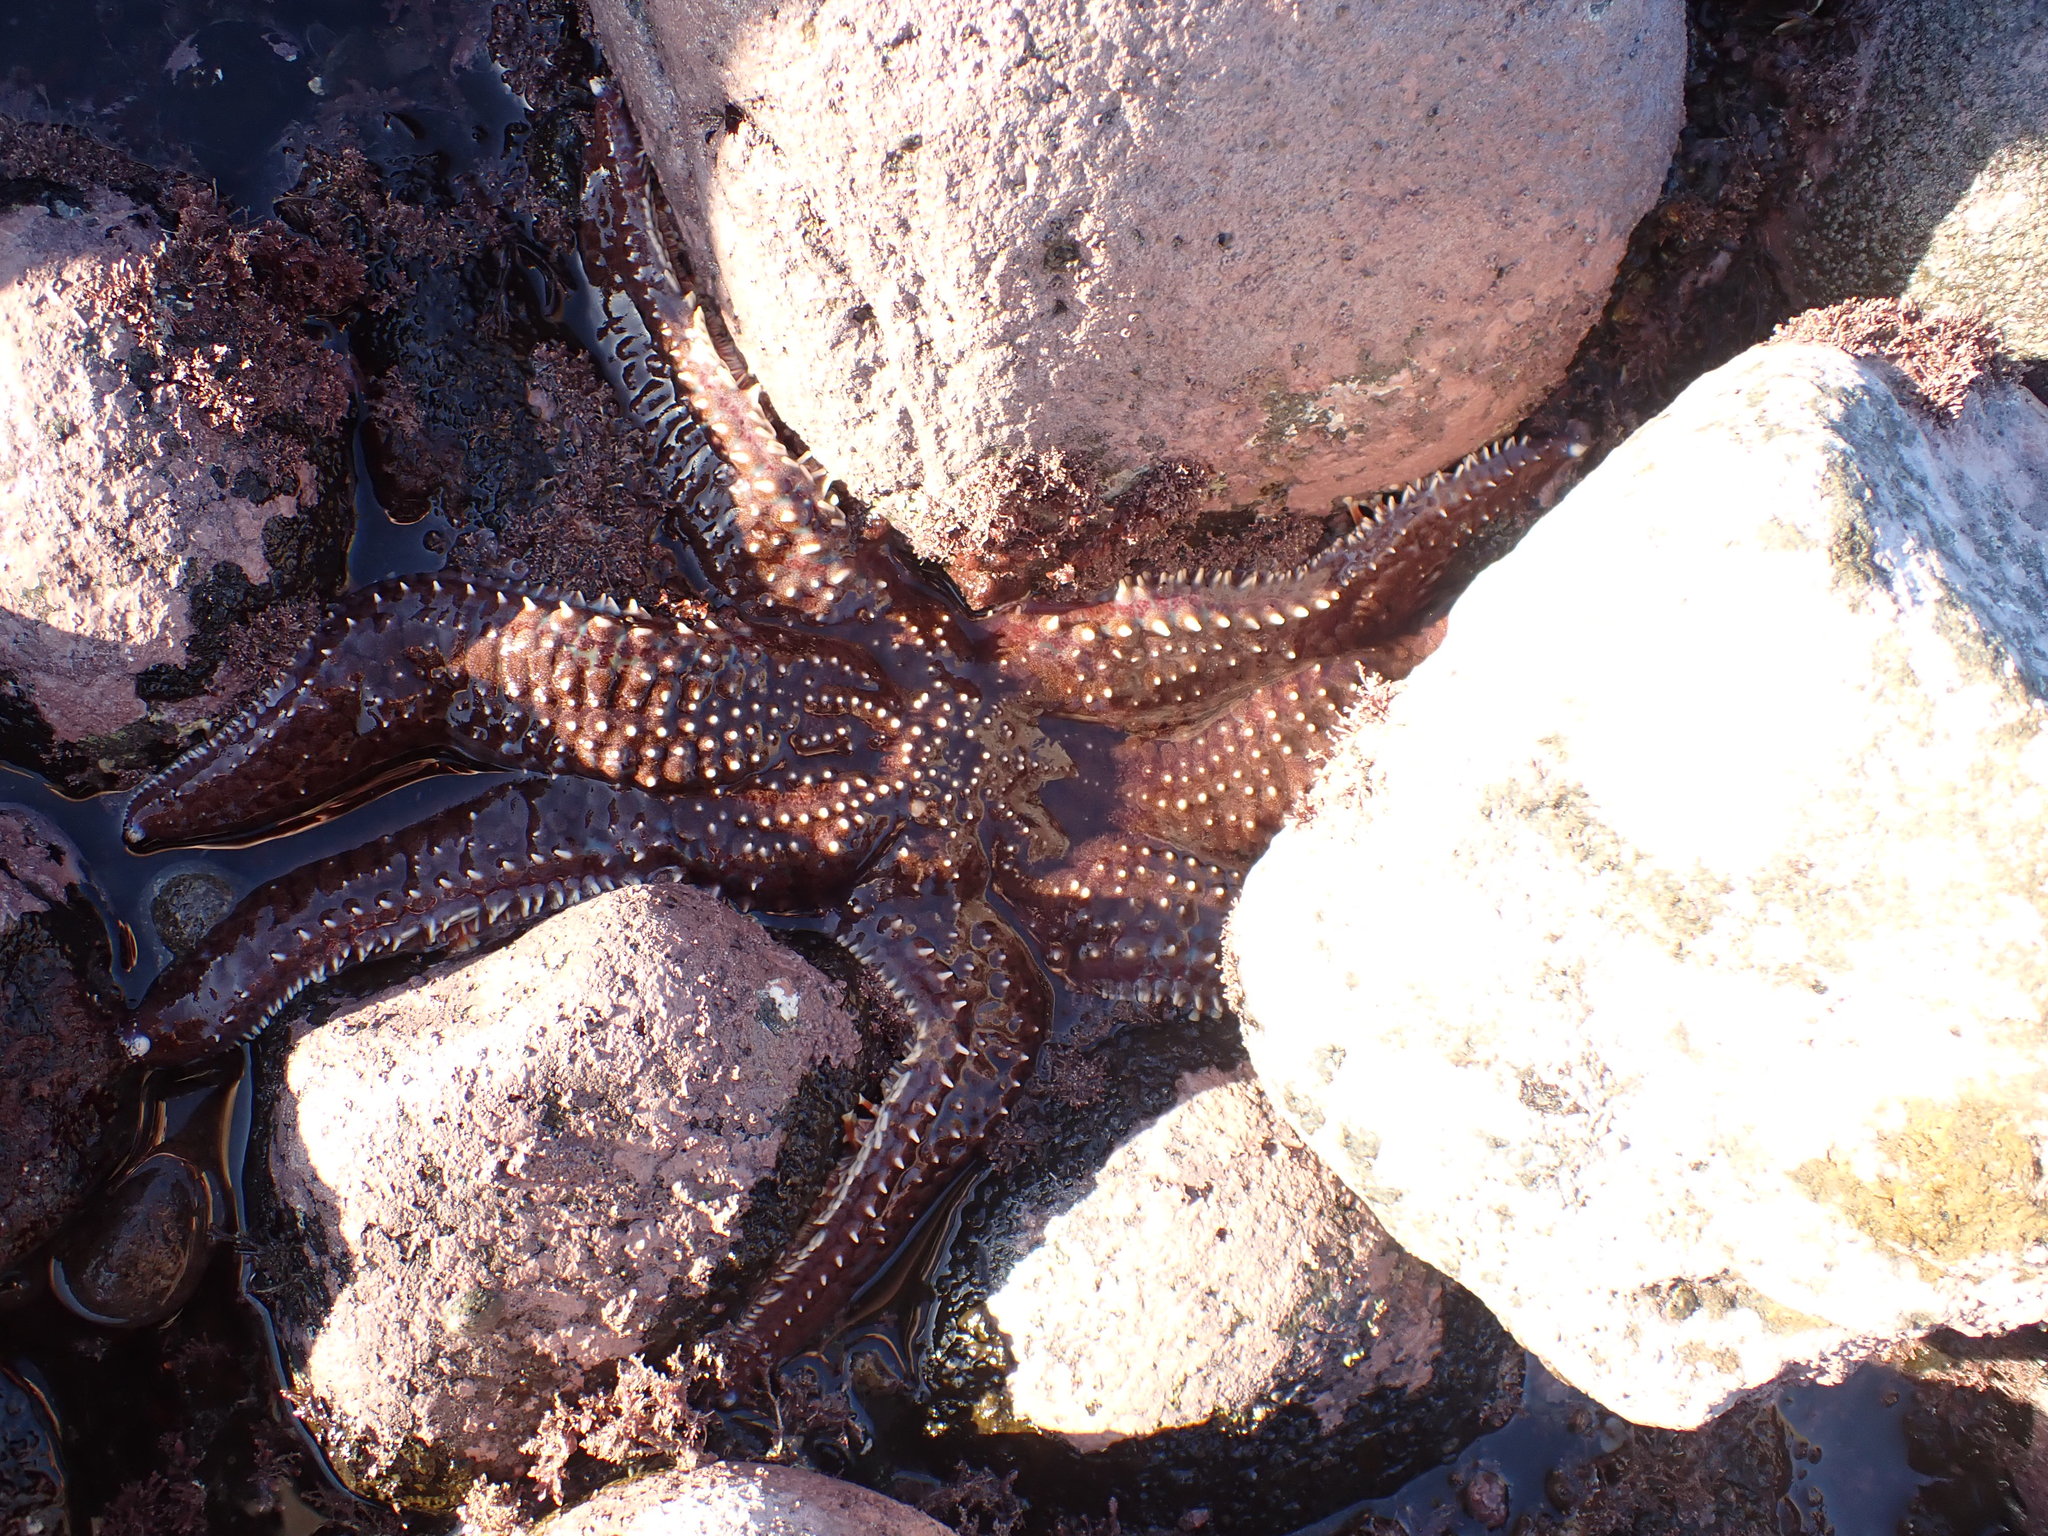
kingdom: Animalia
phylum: Echinodermata
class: Asteroidea
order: Forcipulatida
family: Asteriidae
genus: Astrostole
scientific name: Astrostole scabra
